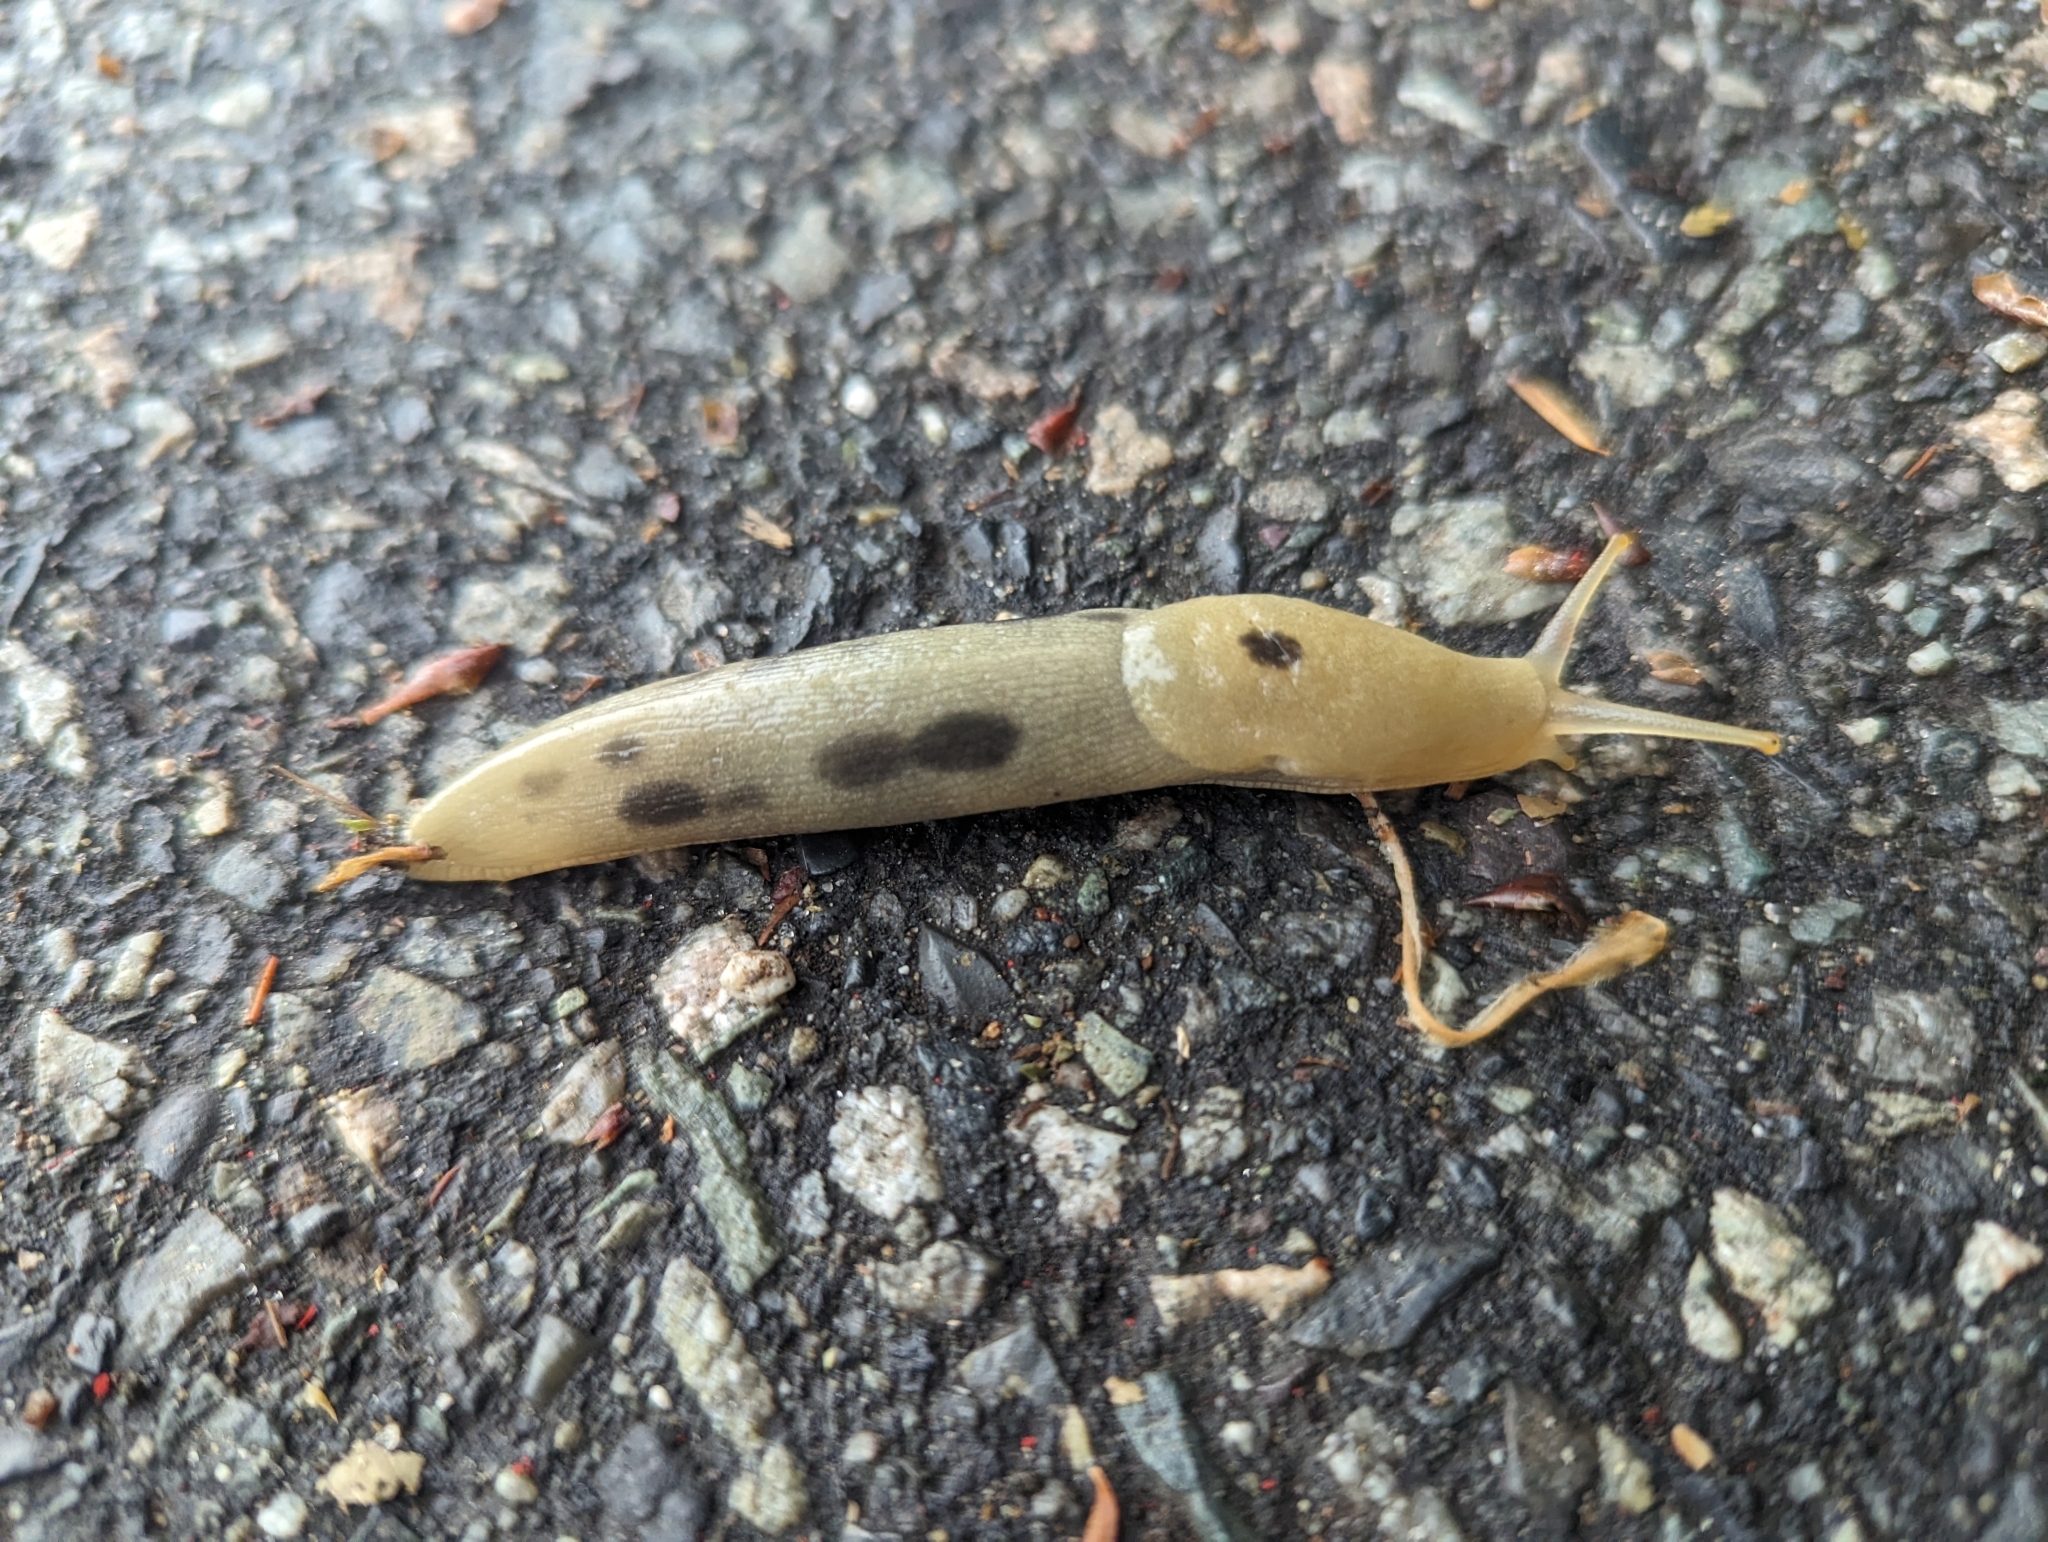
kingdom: Animalia
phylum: Mollusca
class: Gastropoda
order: Stylommatophora
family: Ariolimacidae
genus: Ariolimax
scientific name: Ariolimax columbianus
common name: Pacific banana slug
